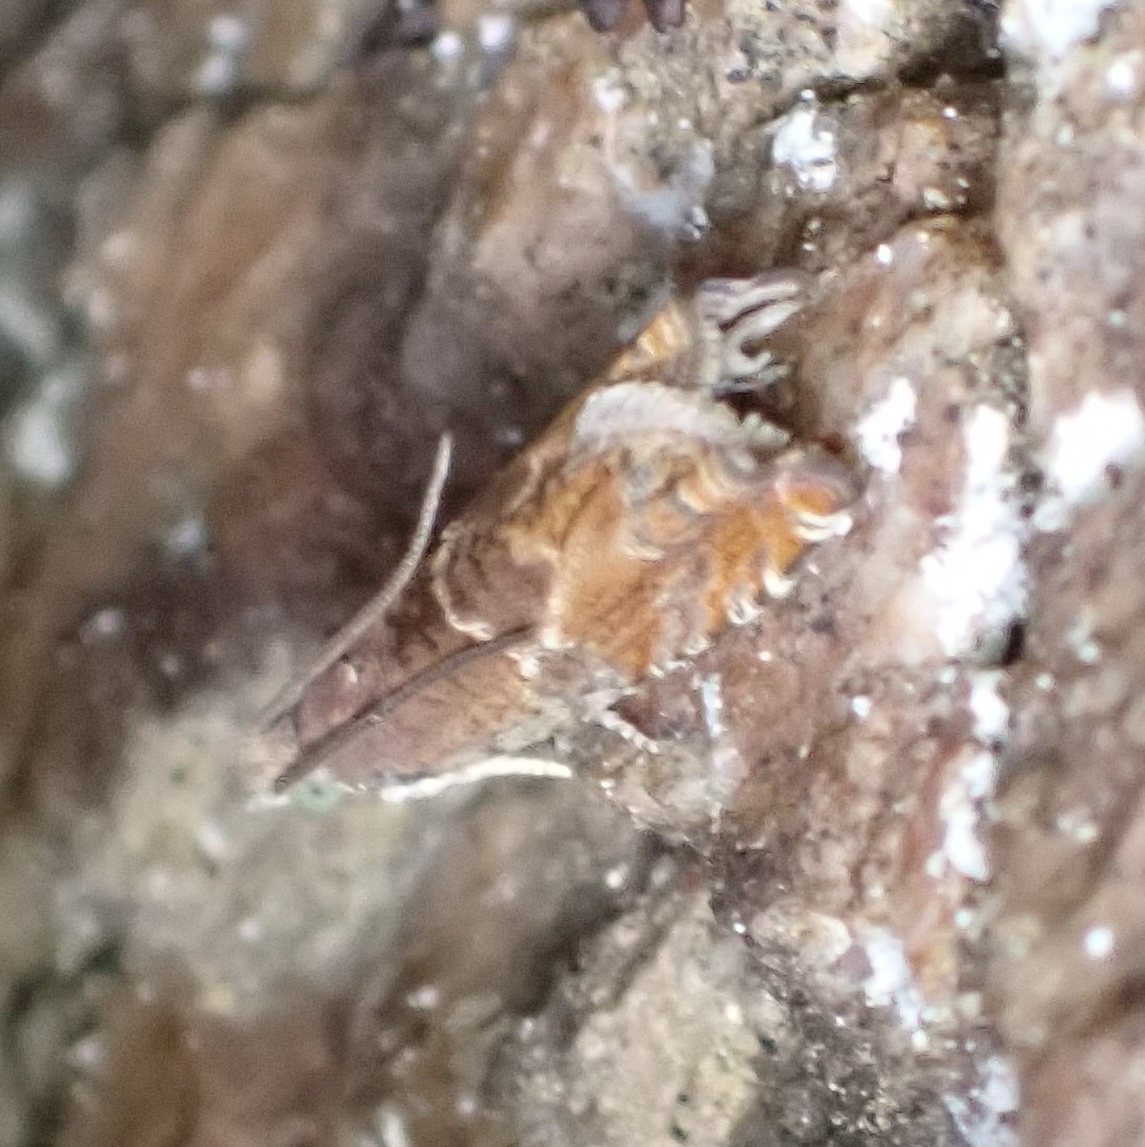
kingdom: Animalia
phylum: Arthropoda
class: Insecta
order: Lepidoptera
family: Tortricidae
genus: Epinotia
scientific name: Epinotia tenerana
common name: Nut bud moth
